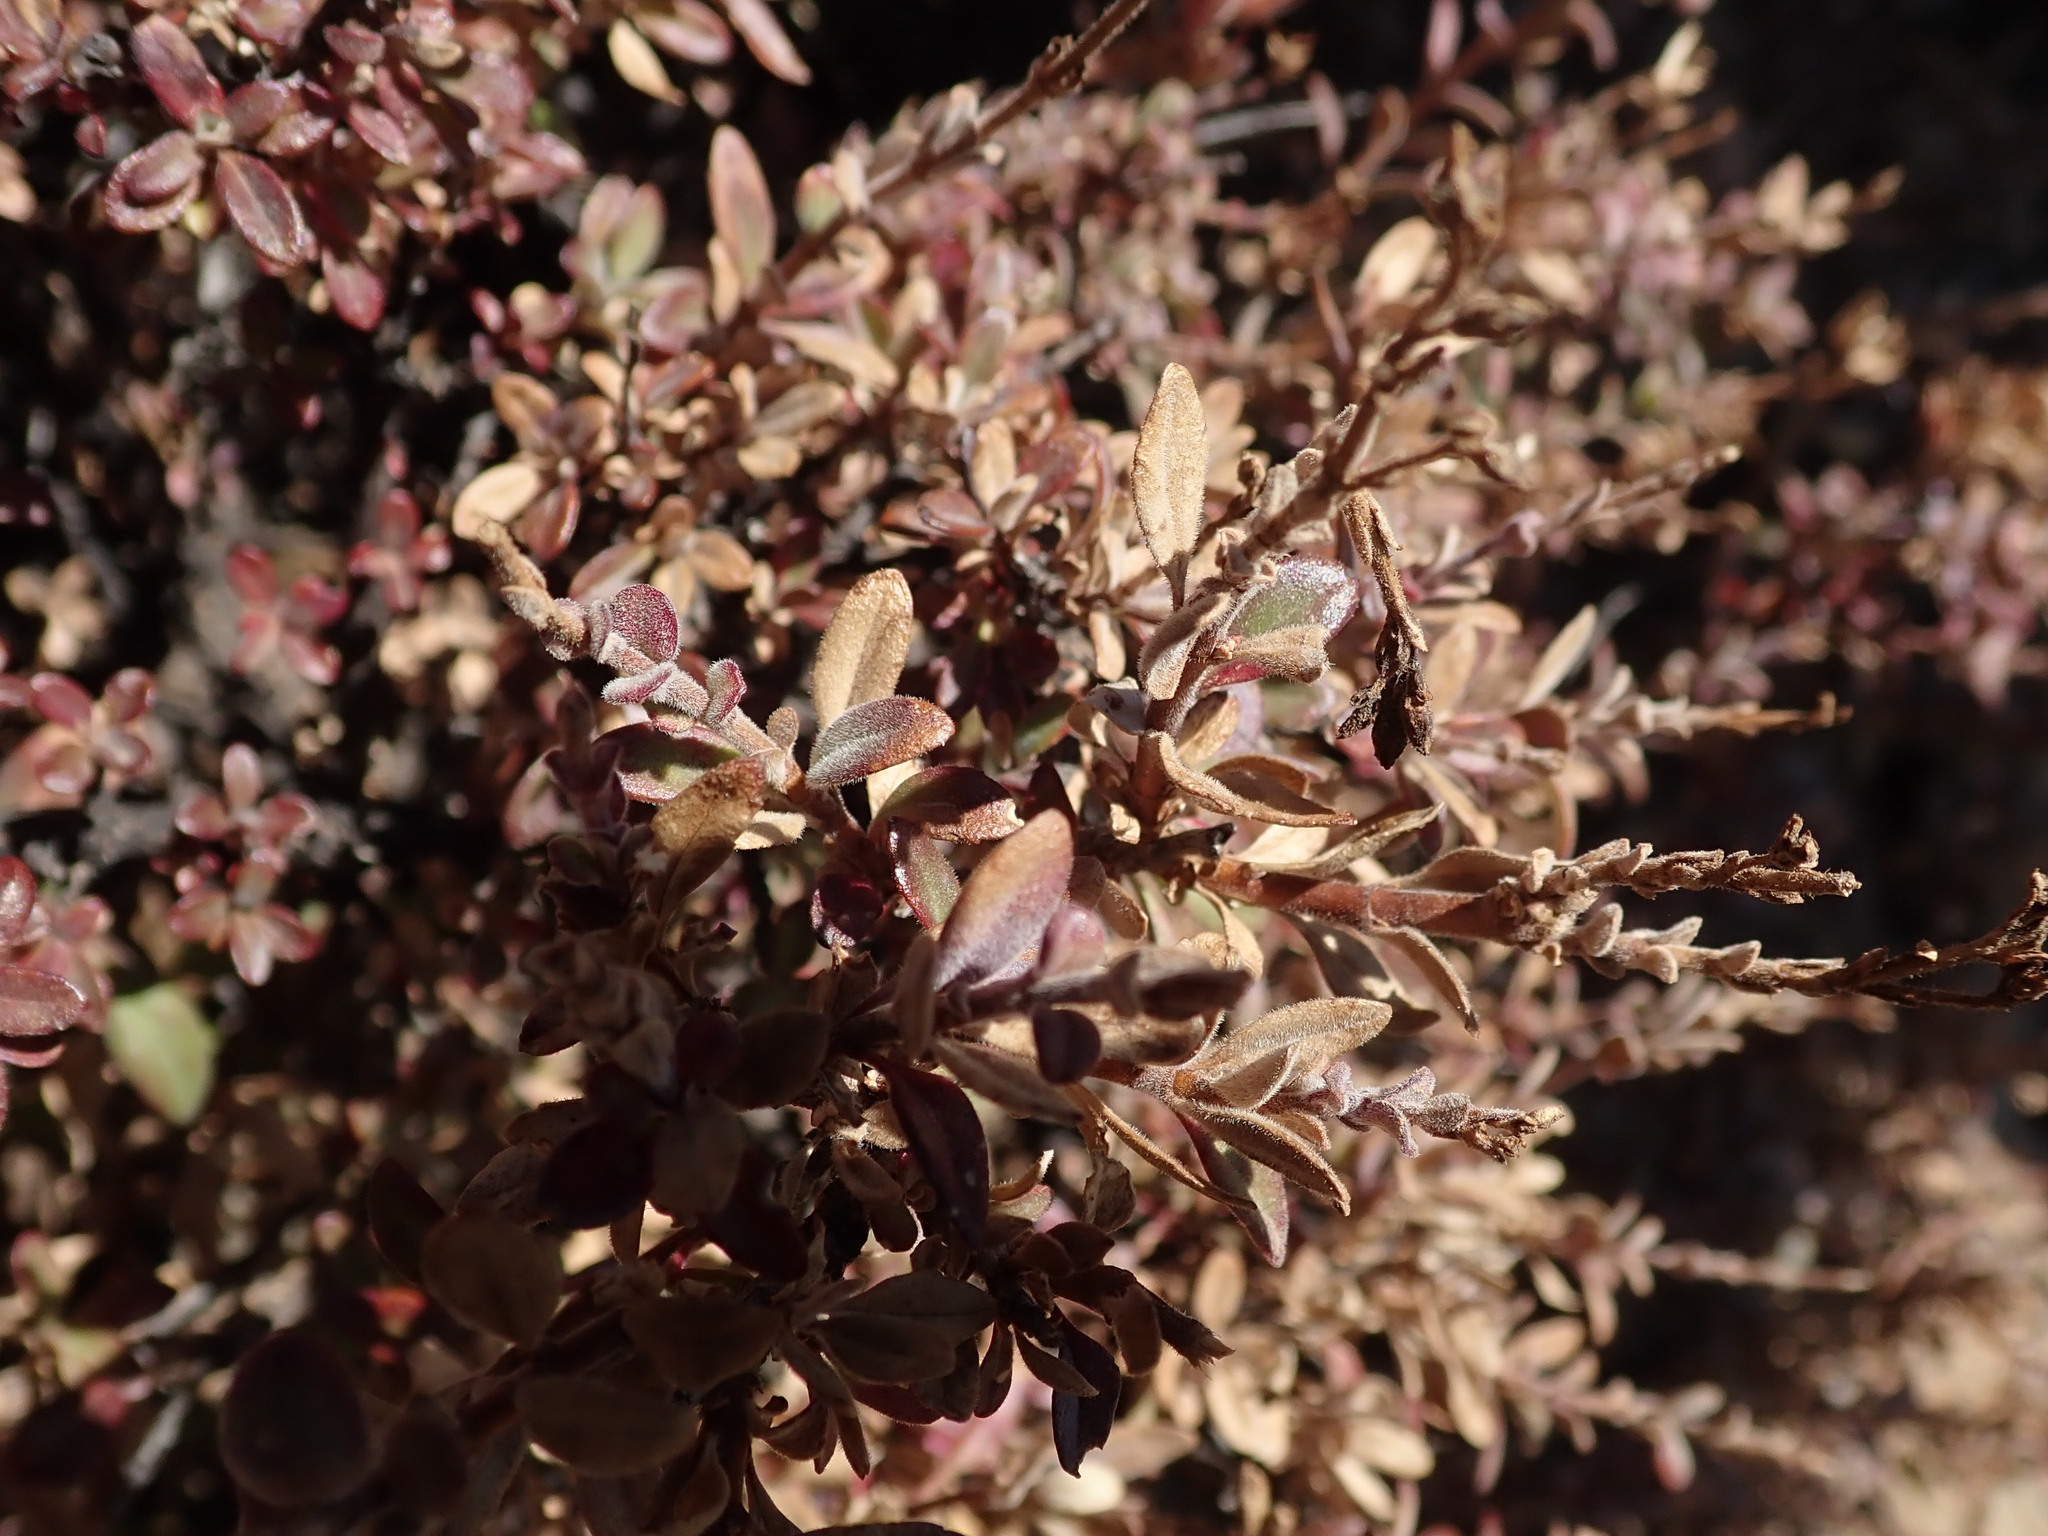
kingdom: Plantae
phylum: Tracheophyta
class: Magnoliopsida
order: Lamiales
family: Plantaginaceae
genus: Keckiella
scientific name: Keckiella corymbosa
